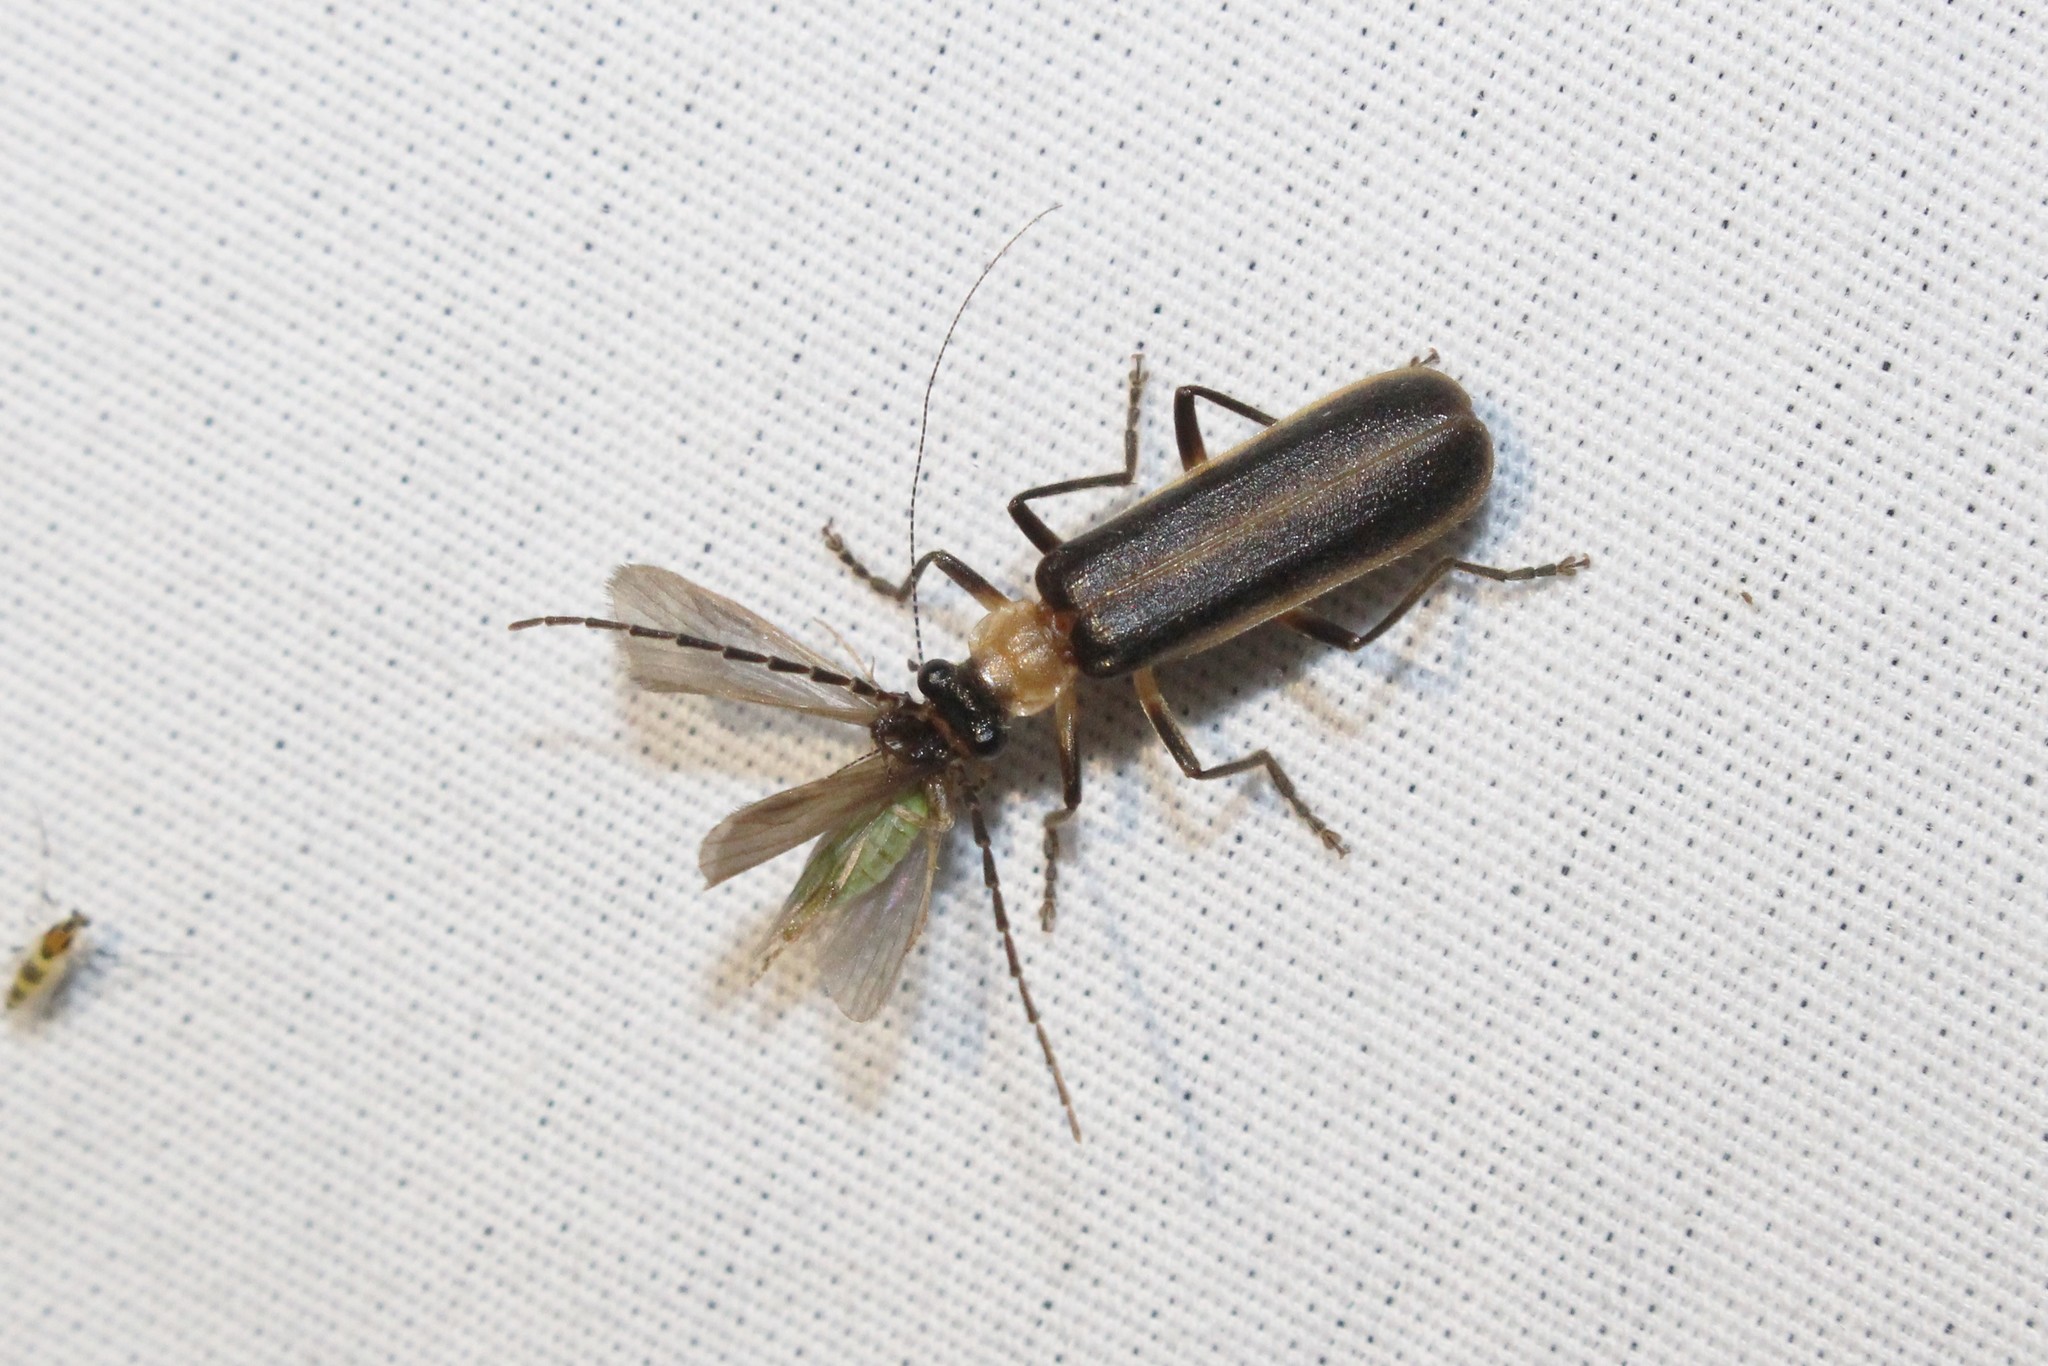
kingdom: Animalia
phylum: Arthropoda
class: Insecta
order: Coleoptera
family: Cantharidae
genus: Podabrus
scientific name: Podabrus flavicollis
